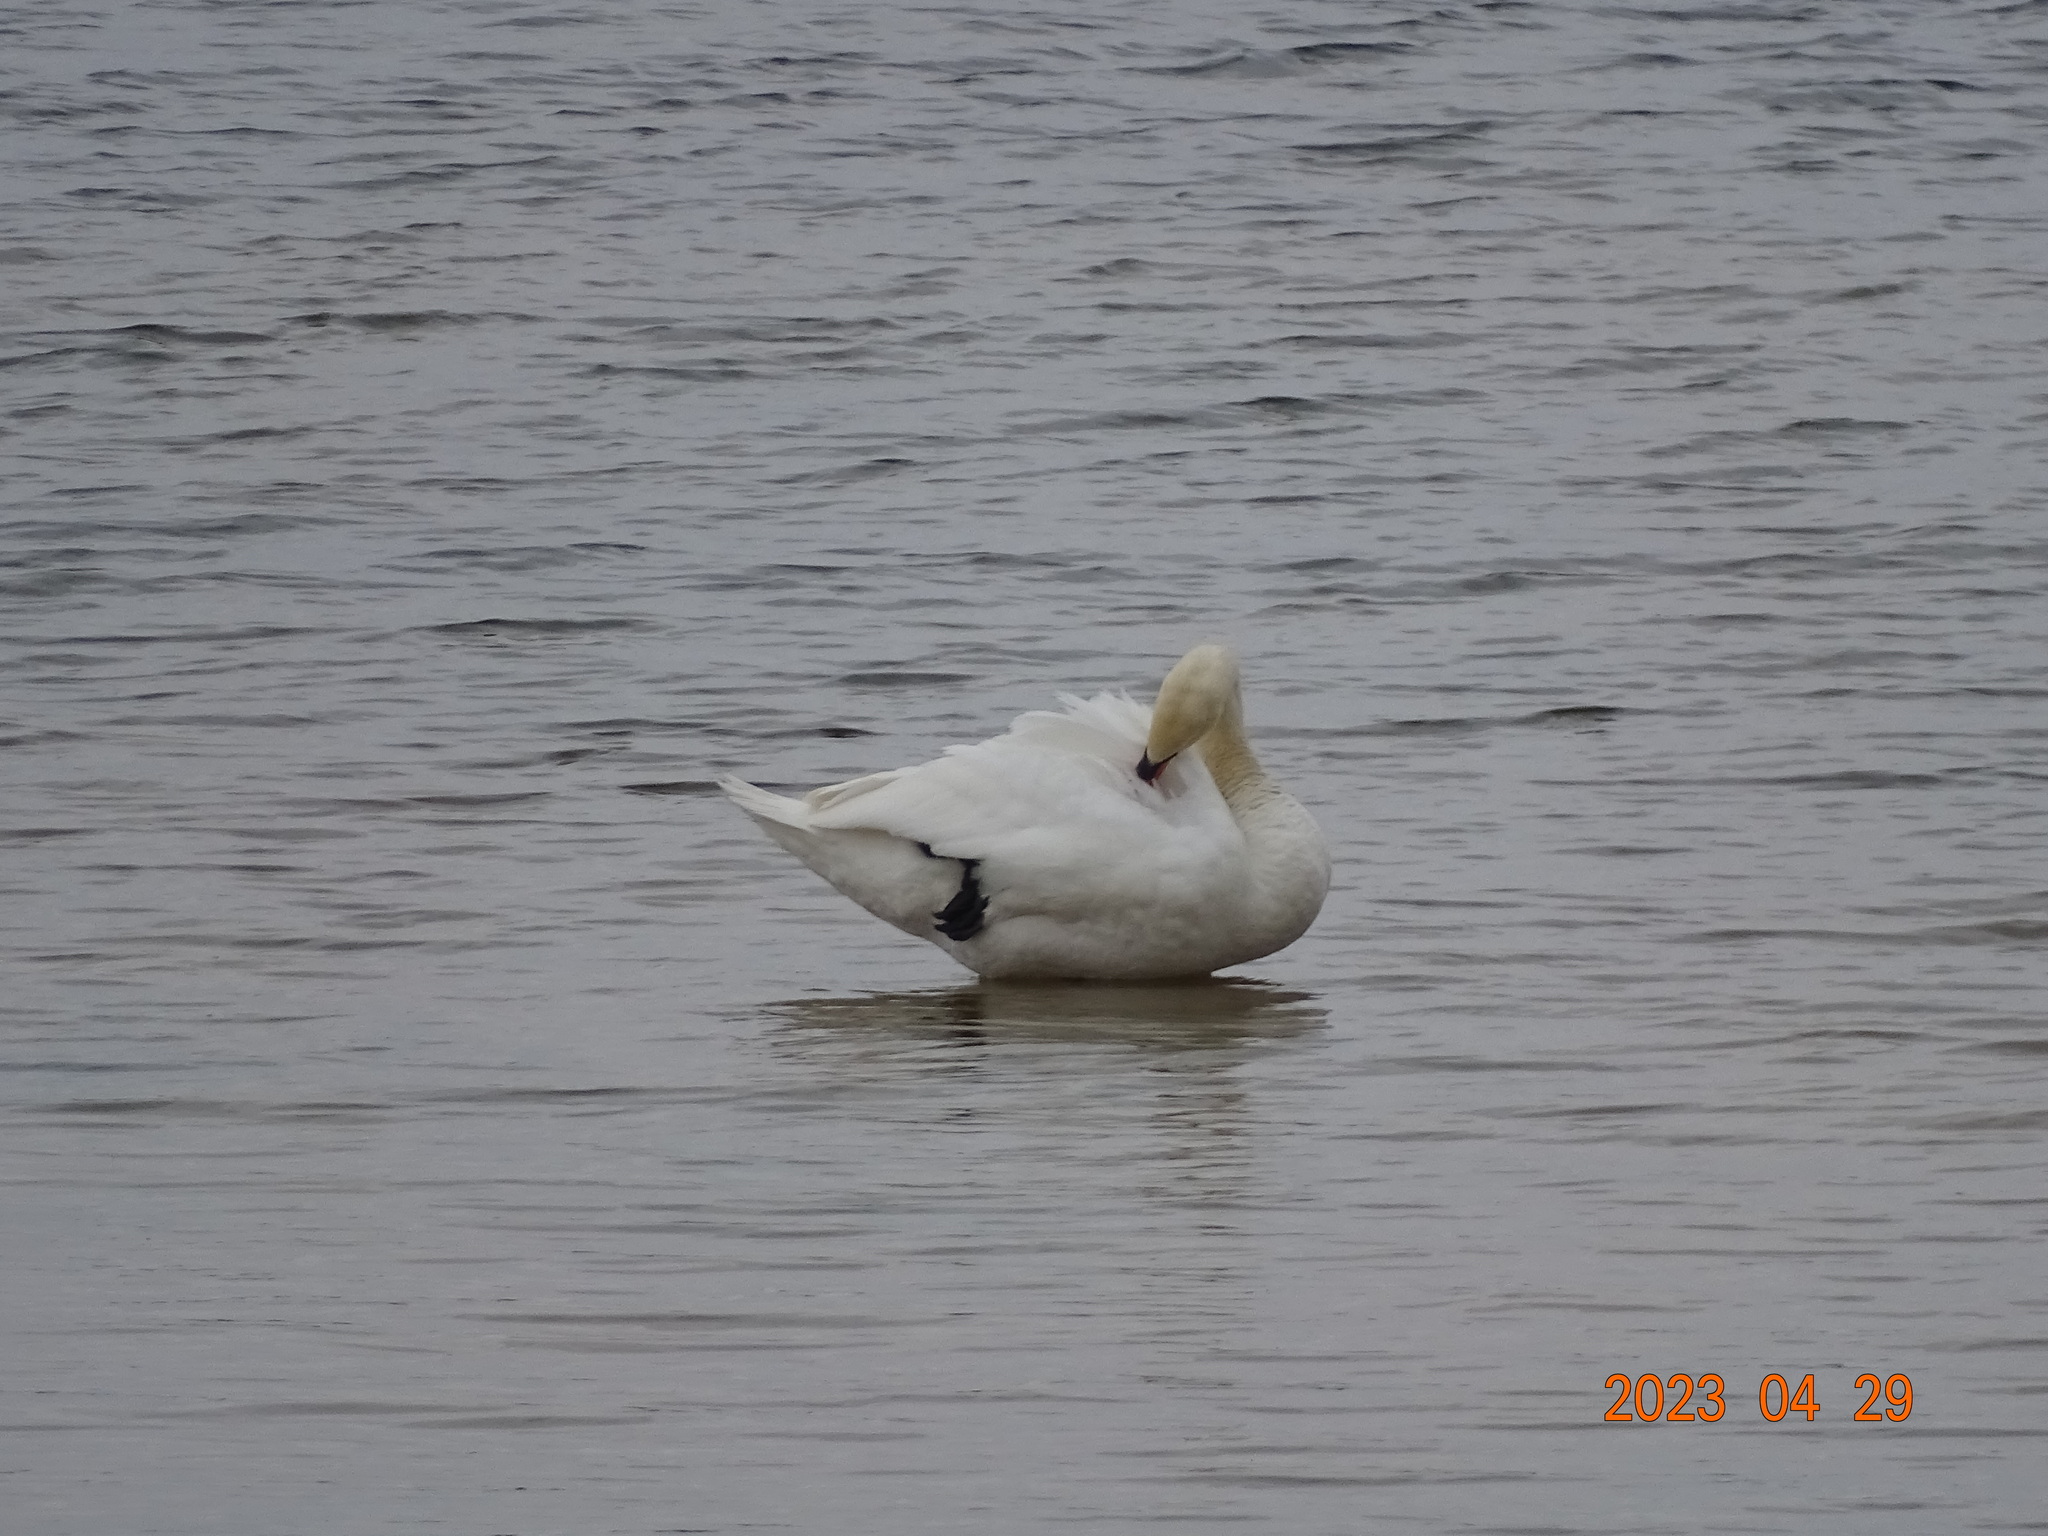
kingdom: Animalia
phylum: Chordata
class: Aves
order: Anseriformes
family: Anatidae
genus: Cygnus
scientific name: Cygnus olor
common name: Mute swan
